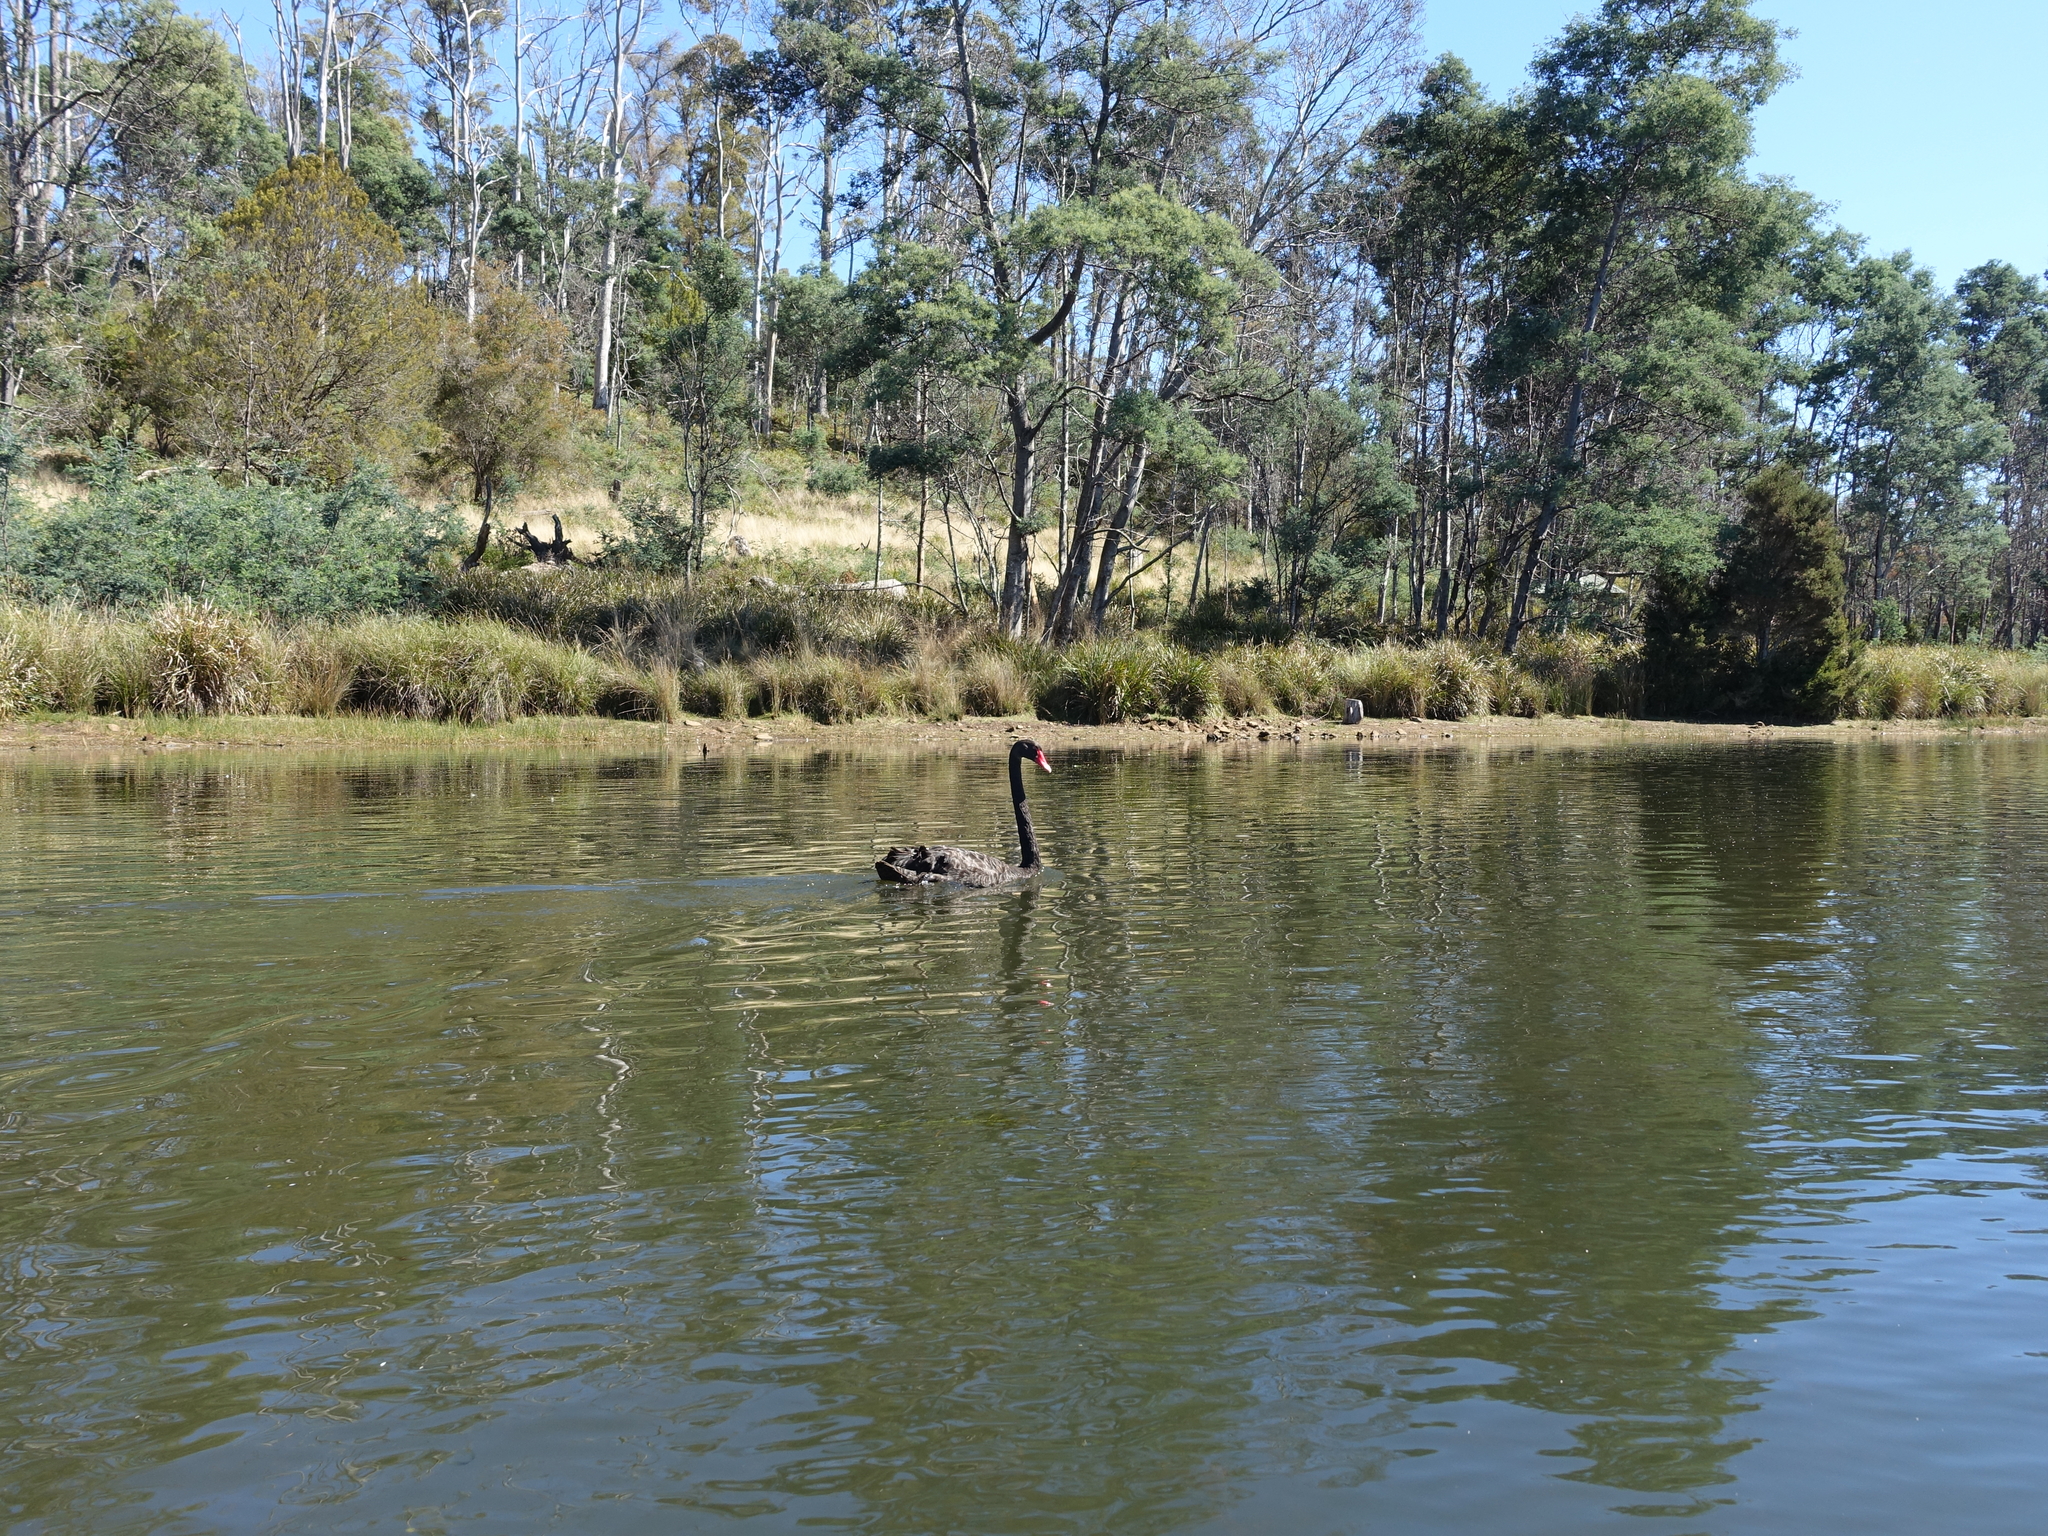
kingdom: Animalia
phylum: Chordata
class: Aves
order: Anseriformes
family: Anatidae
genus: Cygnus
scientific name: Cygnus atratus
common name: Black swan
